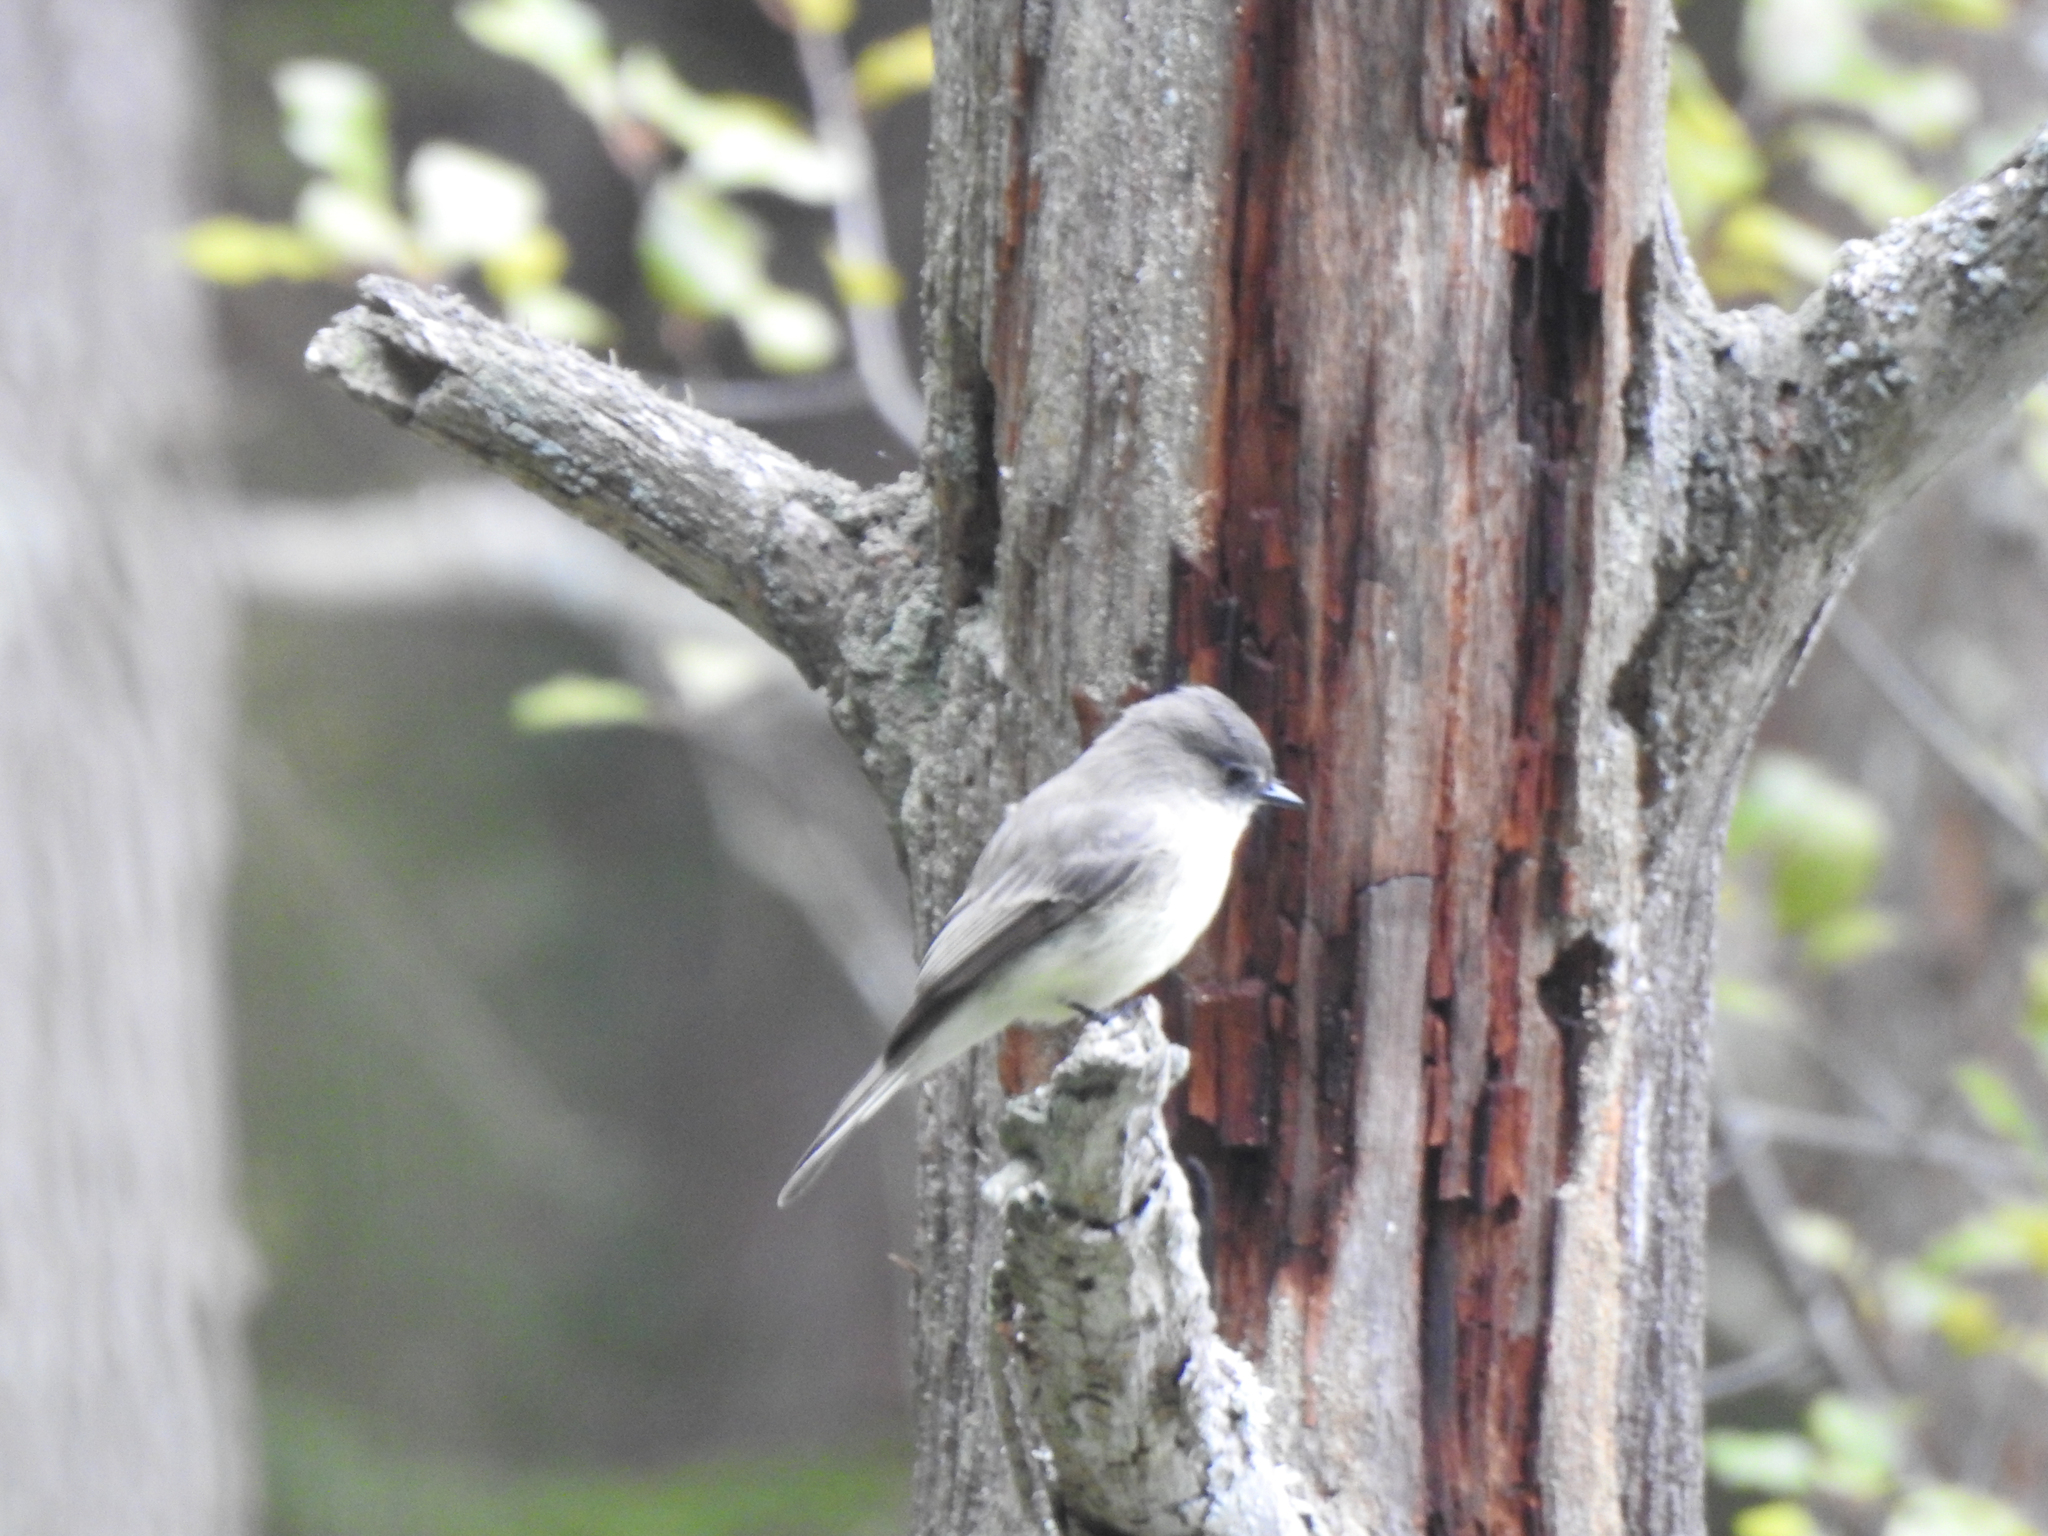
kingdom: Animalia
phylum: Chordata
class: Aves
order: Passeriformes
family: Tyrannidae
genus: Sayornis
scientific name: Sayornis phoebe
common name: Eastern phoebe
